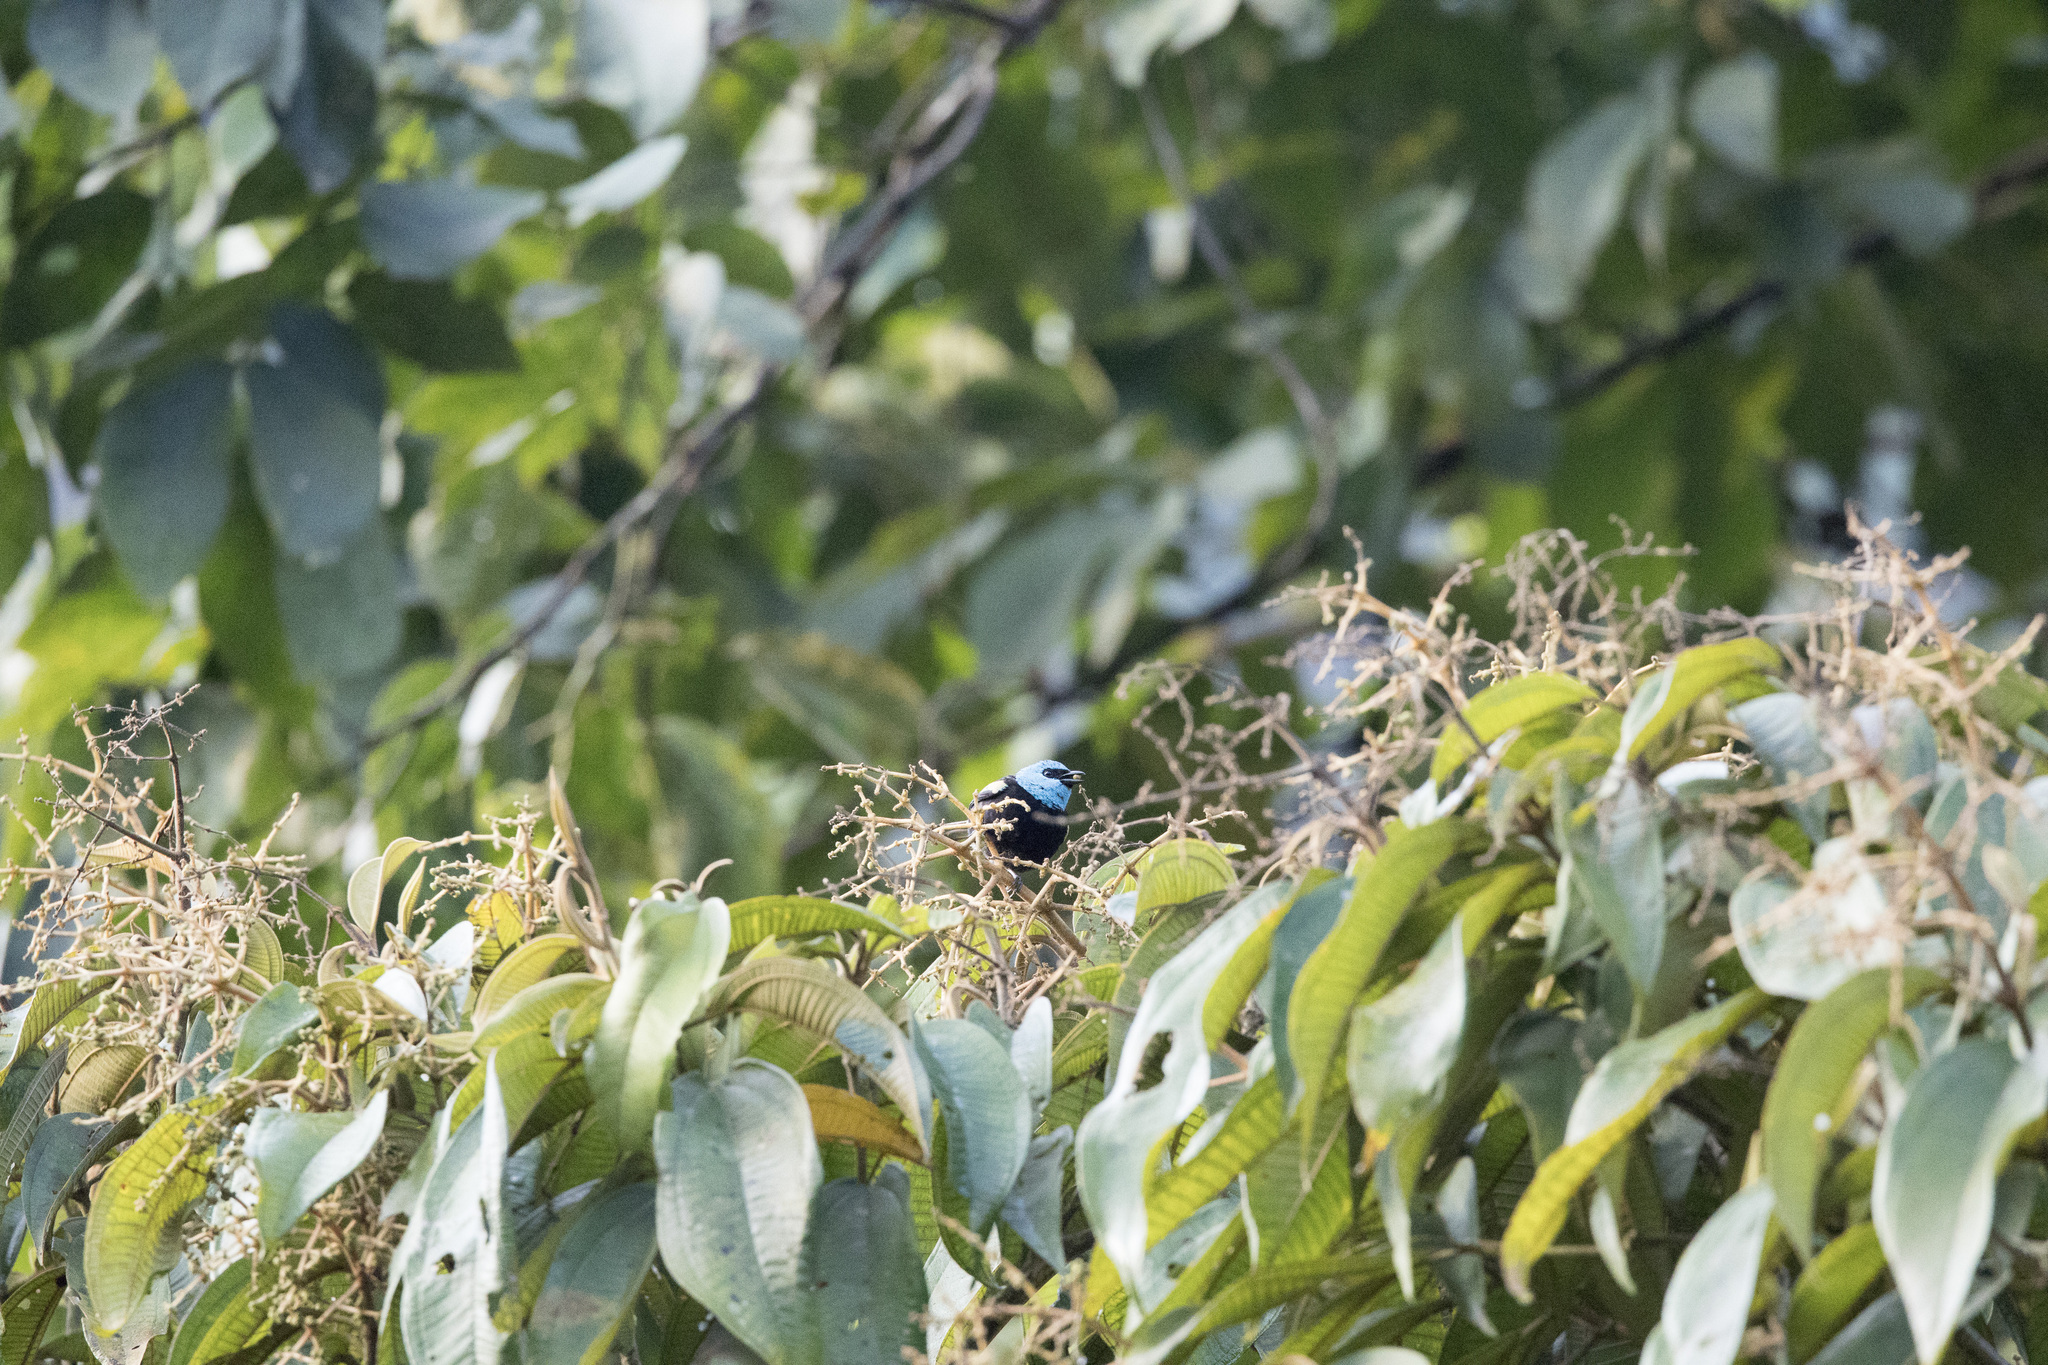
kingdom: Animalia
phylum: Chordata
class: Aves
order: Passeriformes
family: Thraupidae
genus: Stilpnia
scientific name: Stilpnia cyanicollis
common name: Blue-necked tanager
